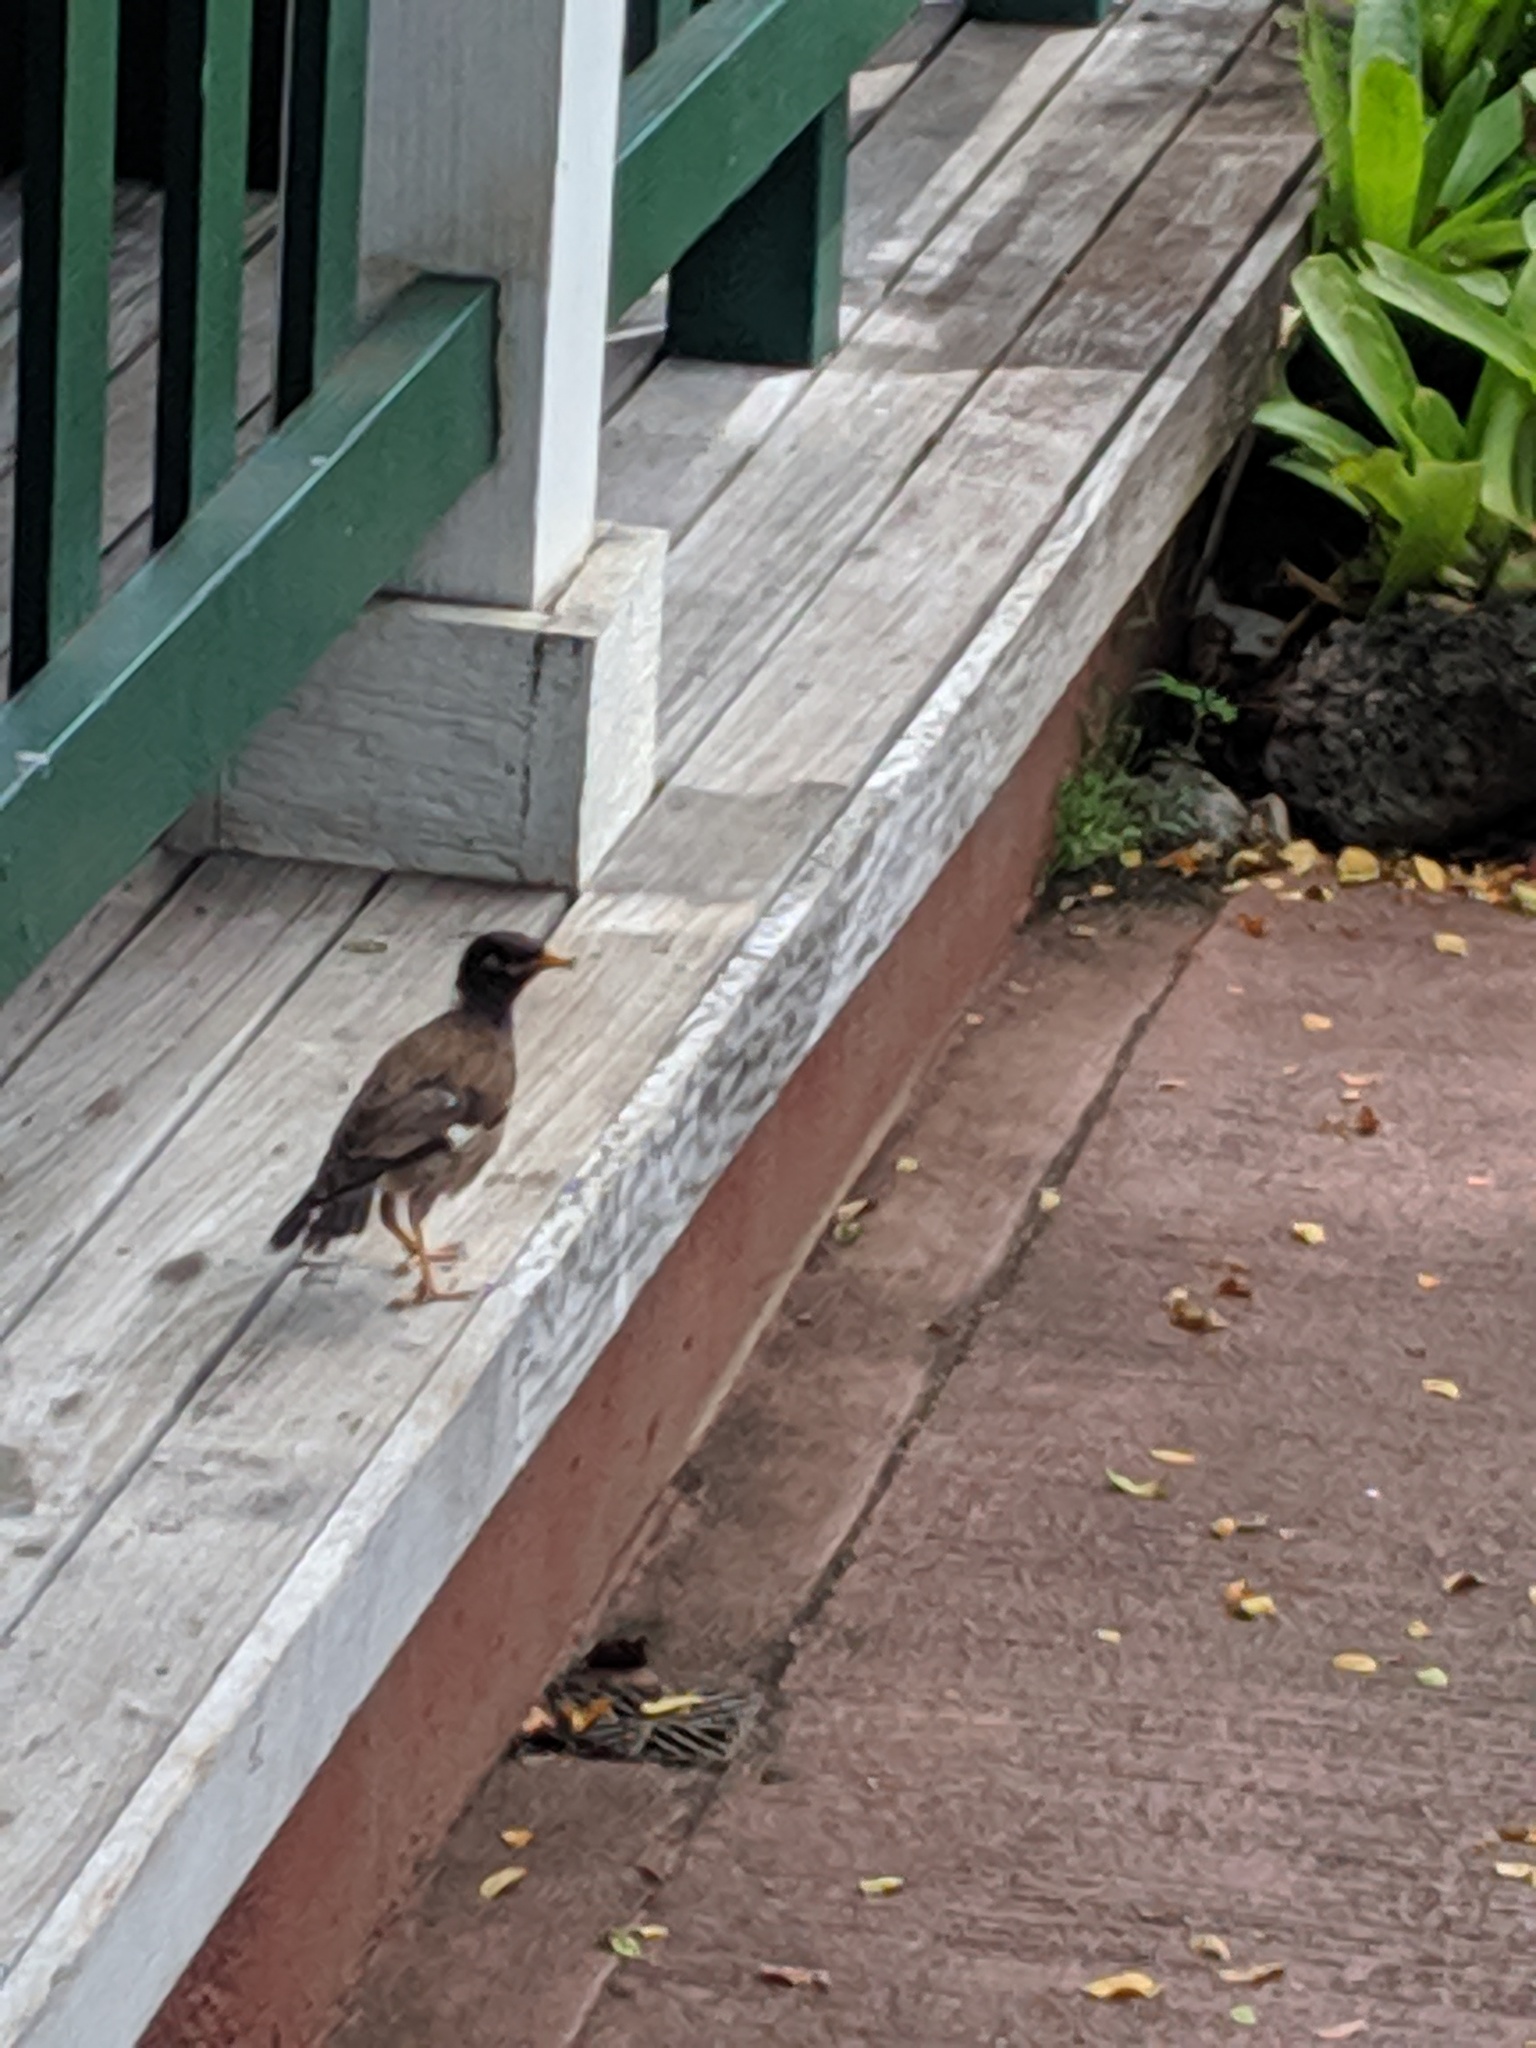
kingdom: Animalia
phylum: Chordata
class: Aves
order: Passeriformes
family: Sturnidae
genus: Acridotheres
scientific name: Acridotheres tristis
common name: Common myna
